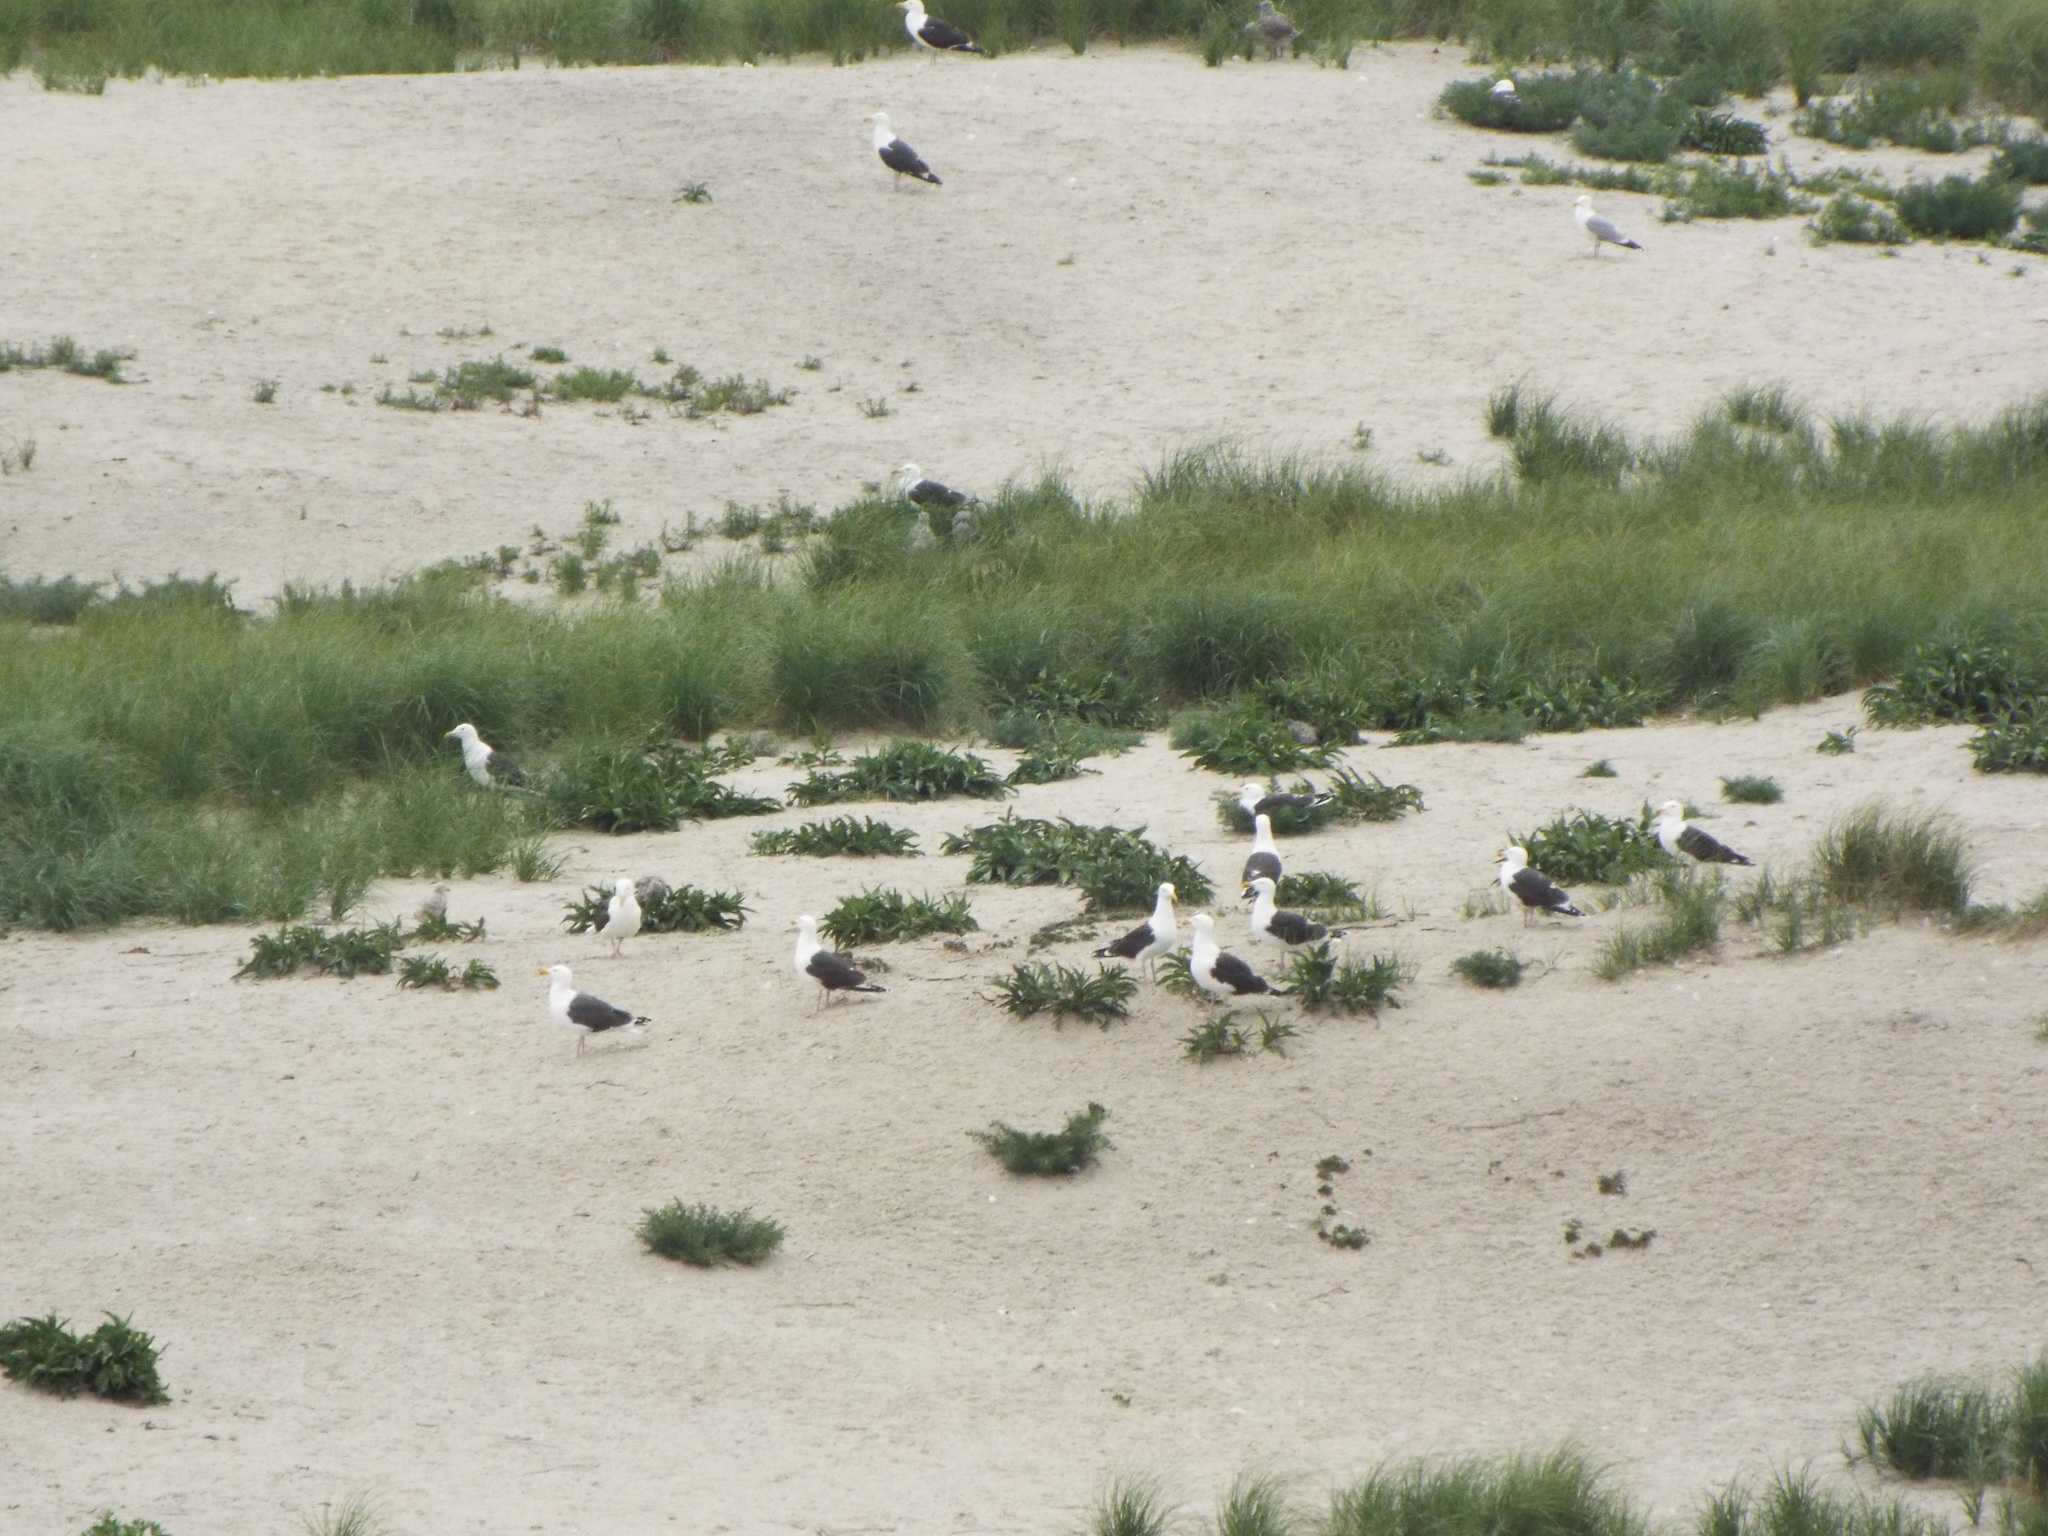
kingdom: Animalia
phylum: Chordata
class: Aves
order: Charadriiformes
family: Laridae
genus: Larus
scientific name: Larus marinus
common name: Great black-backed gull
